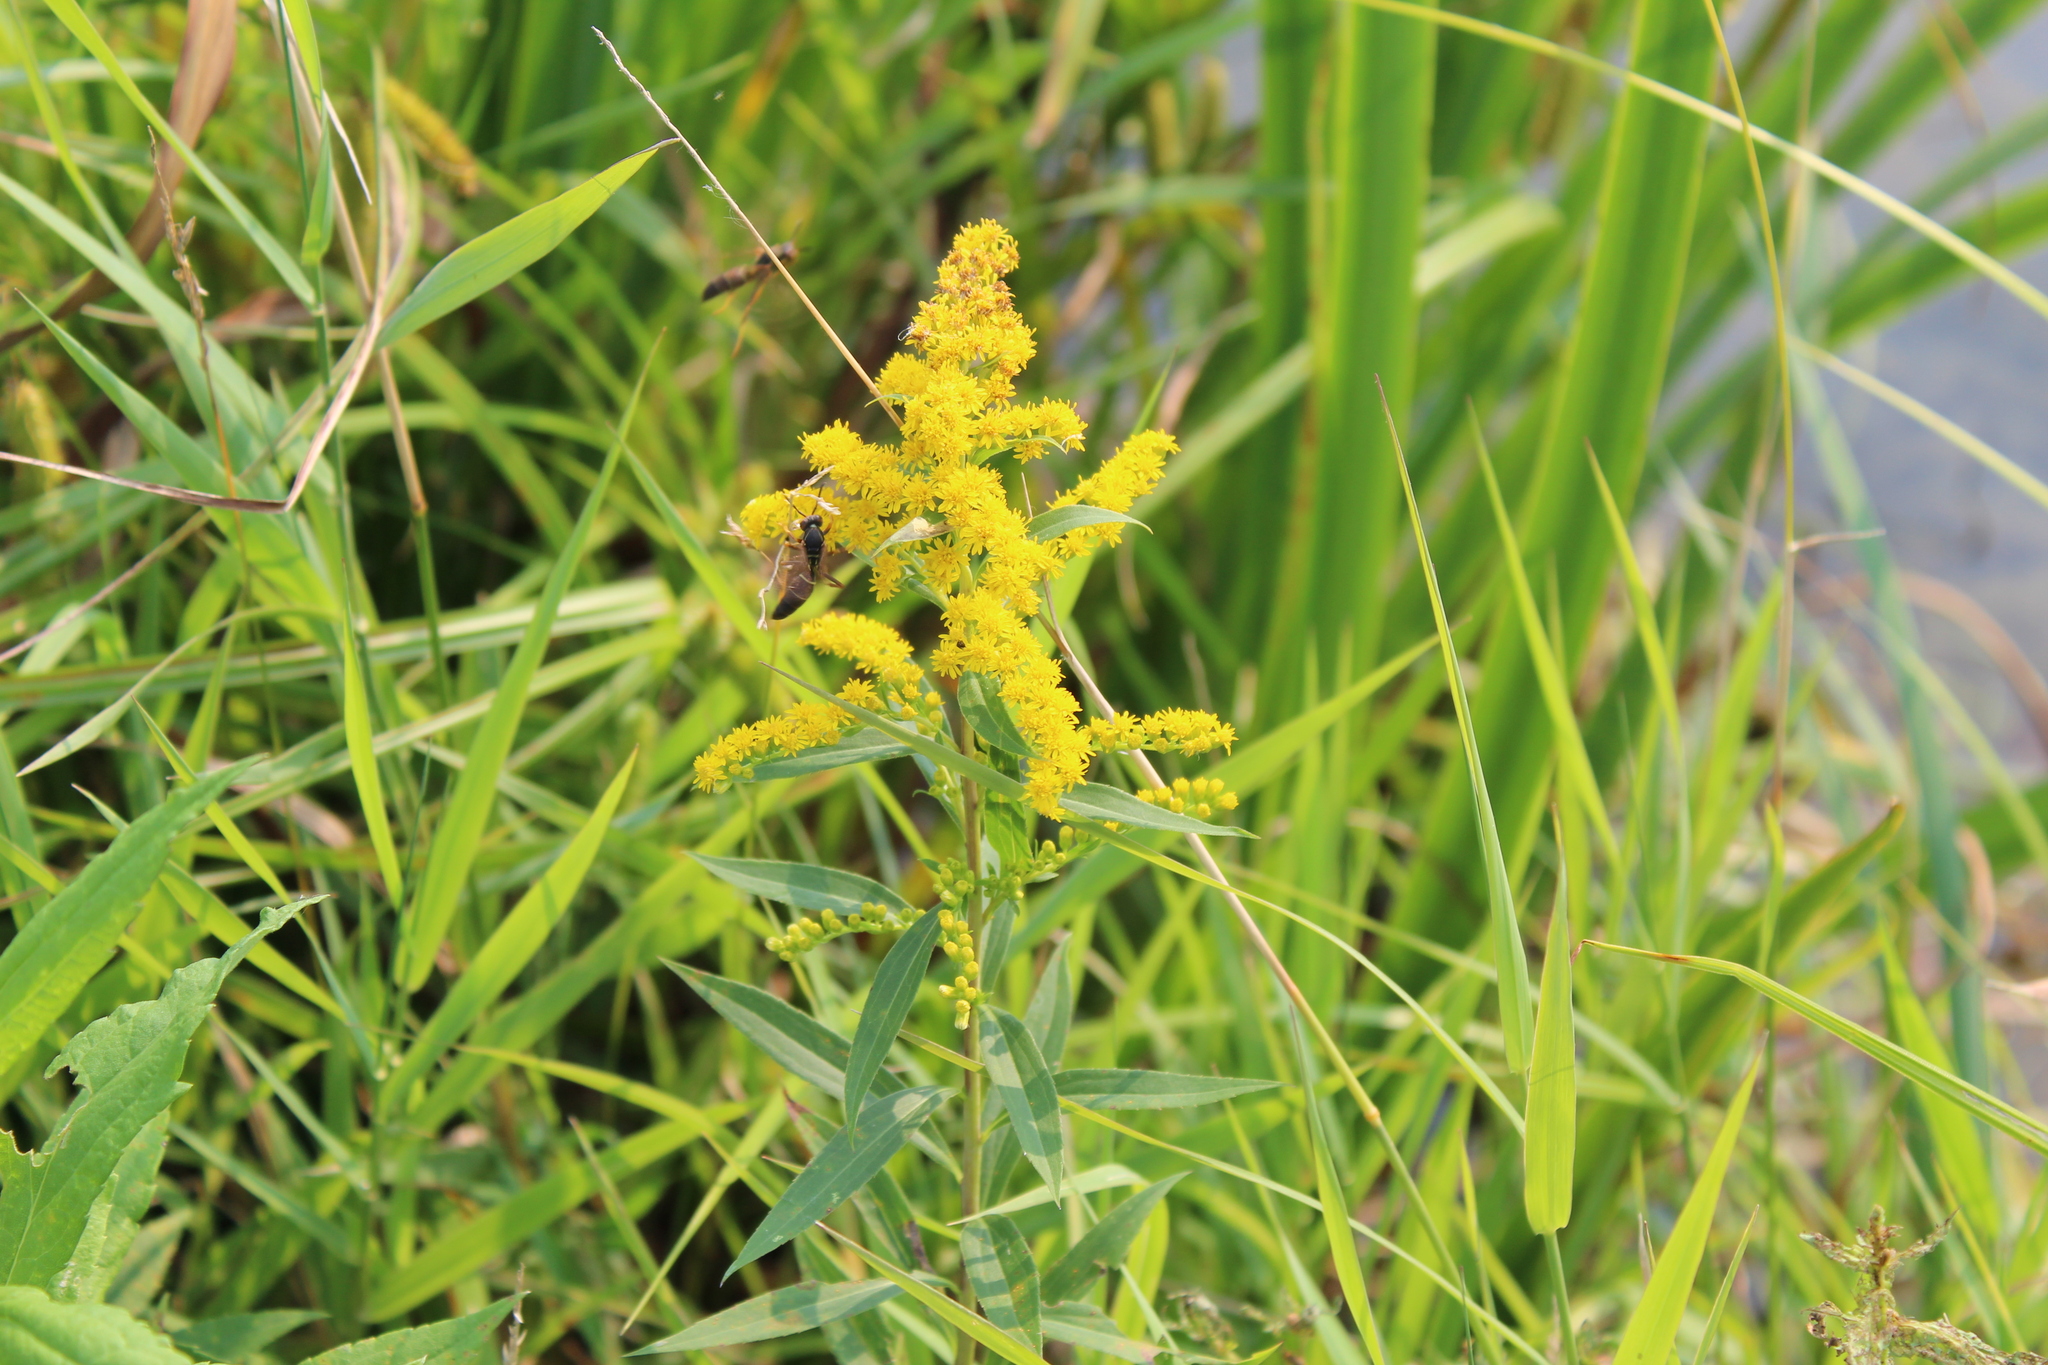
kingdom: Animalia
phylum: Arthropoda
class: Insecta
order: Hymenoptera
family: Eumenidae
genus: Polistes
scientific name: Polistes fuscatus
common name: Dark paper wasp
